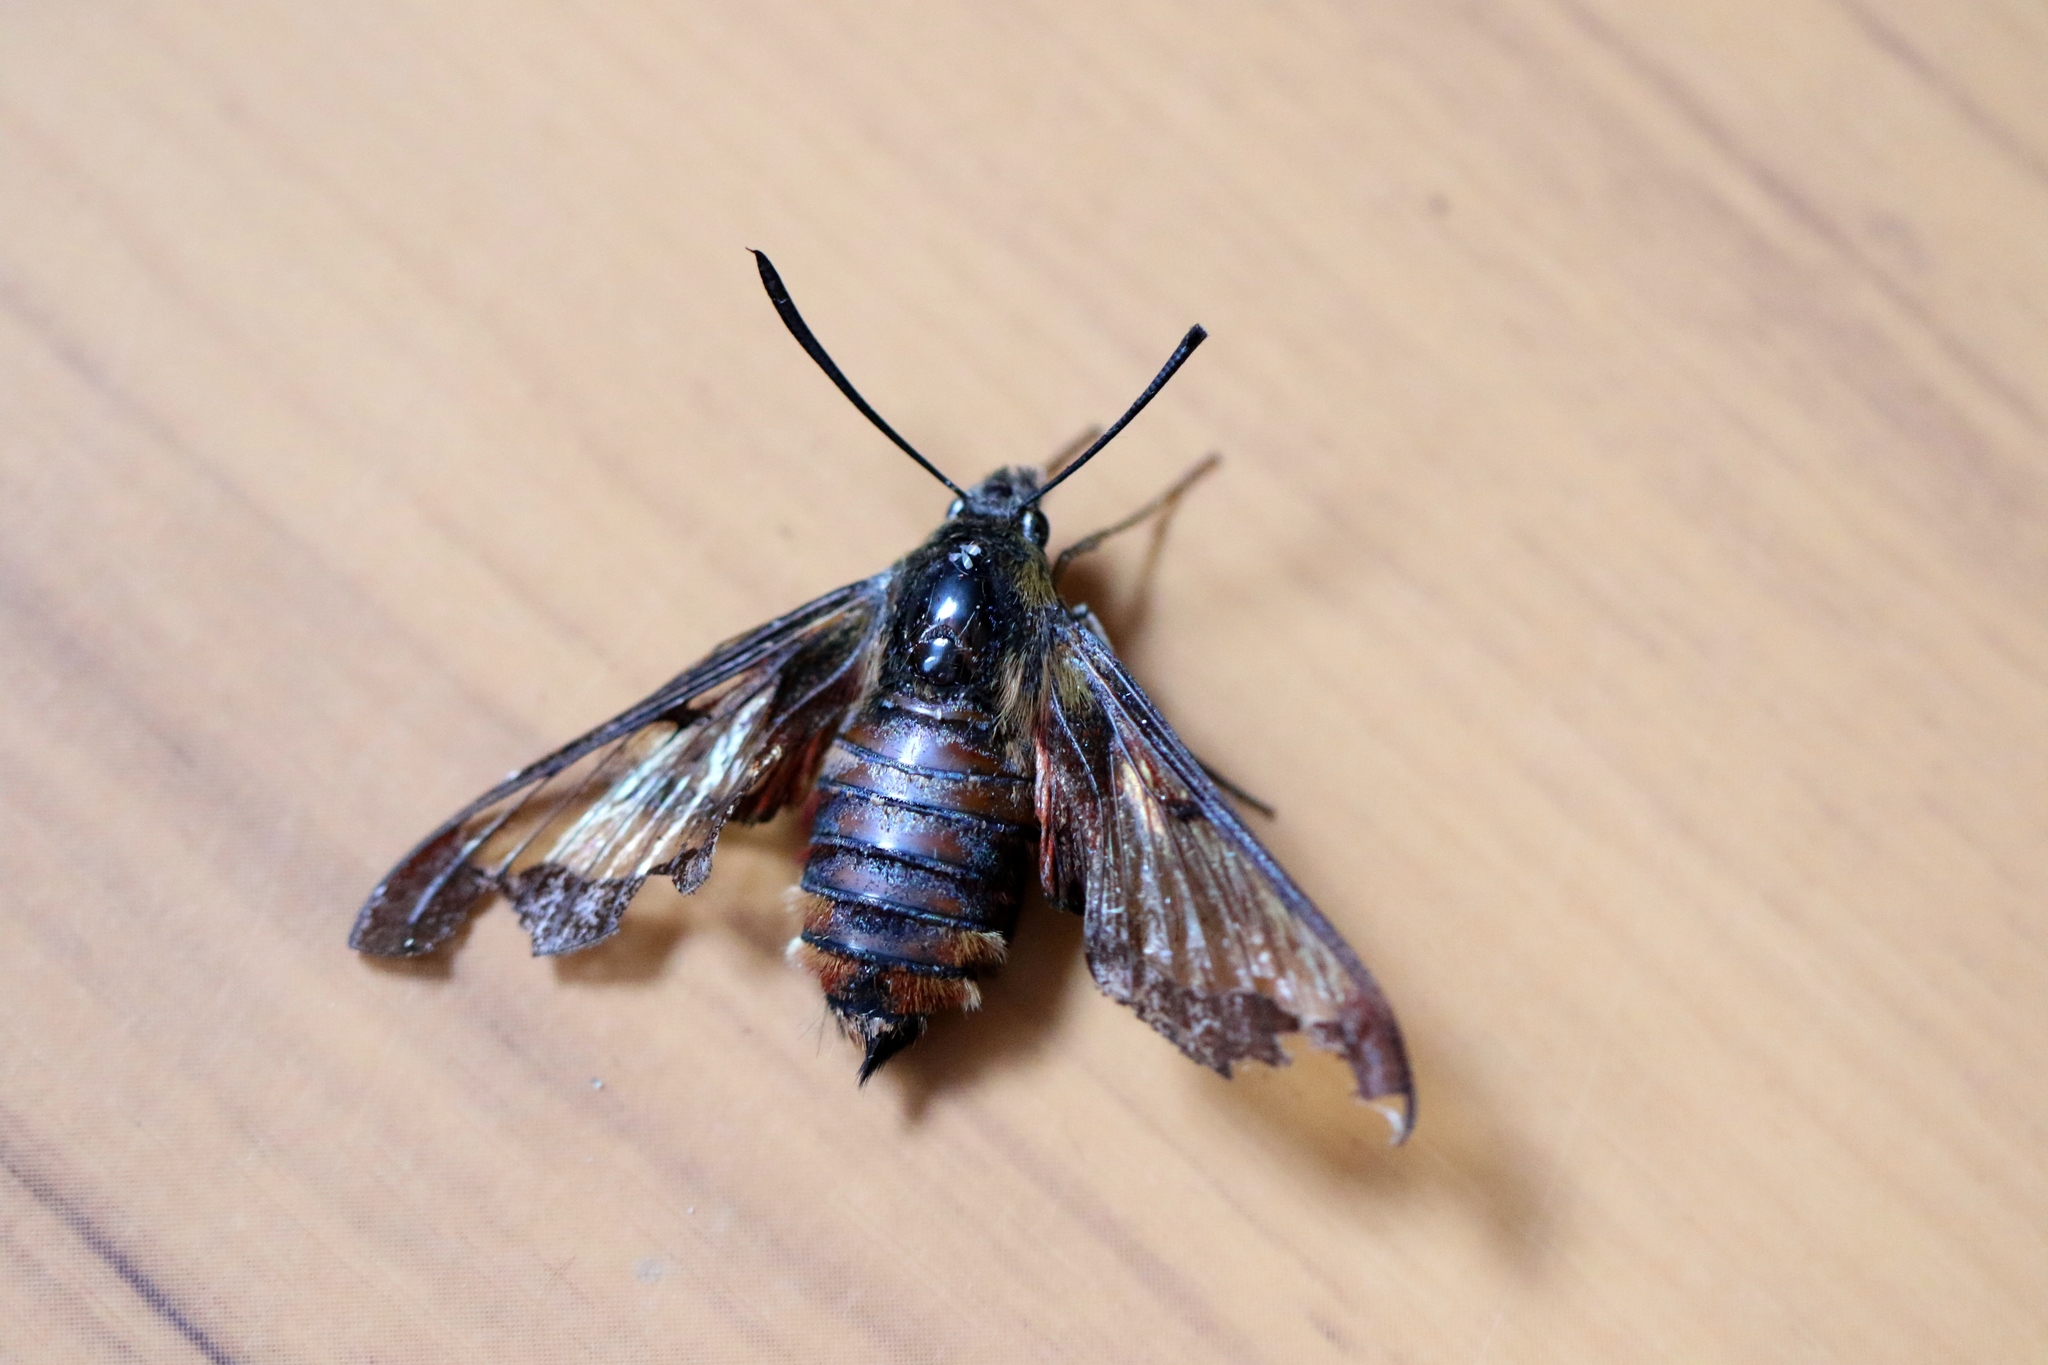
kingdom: Animalia
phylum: Arthropoda
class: Insecta
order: Lepidoptera
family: Sphingidae
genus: Hemaris
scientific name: Hemaris thysbe
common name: Common clear-wing
